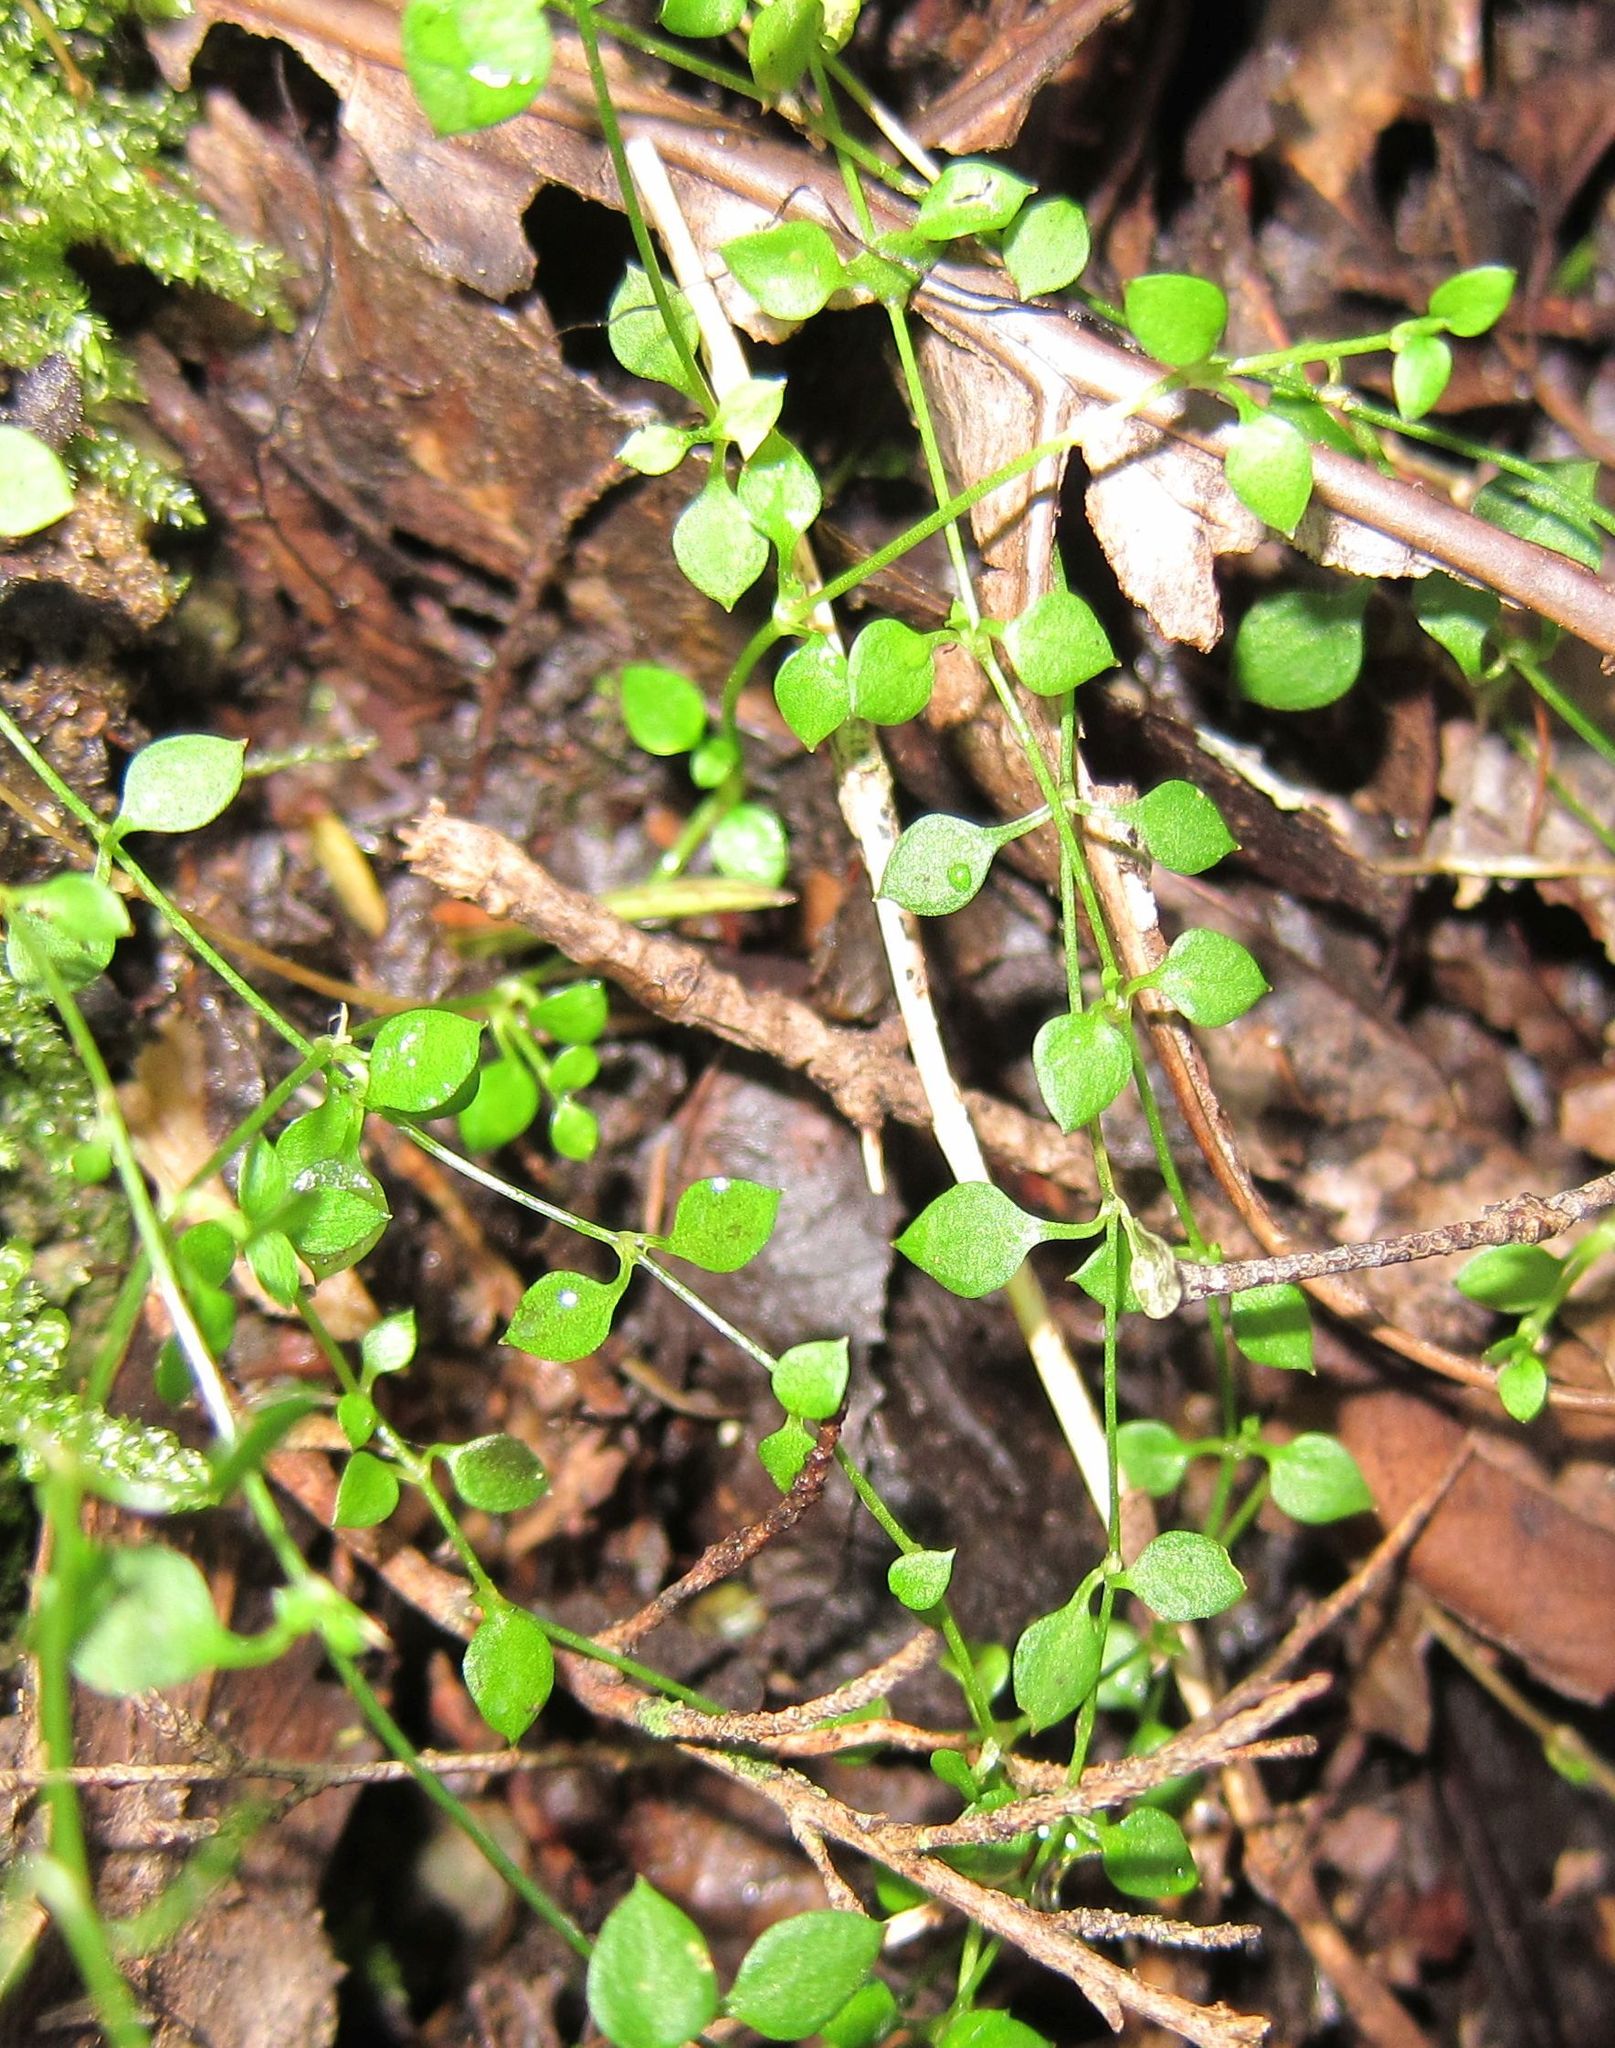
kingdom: Plantae
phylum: Tracheophyta
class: Magnoliopsida
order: Caryophyllales
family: Caryophyllaceae
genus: Stellaria
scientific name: Stellaria parviflora
